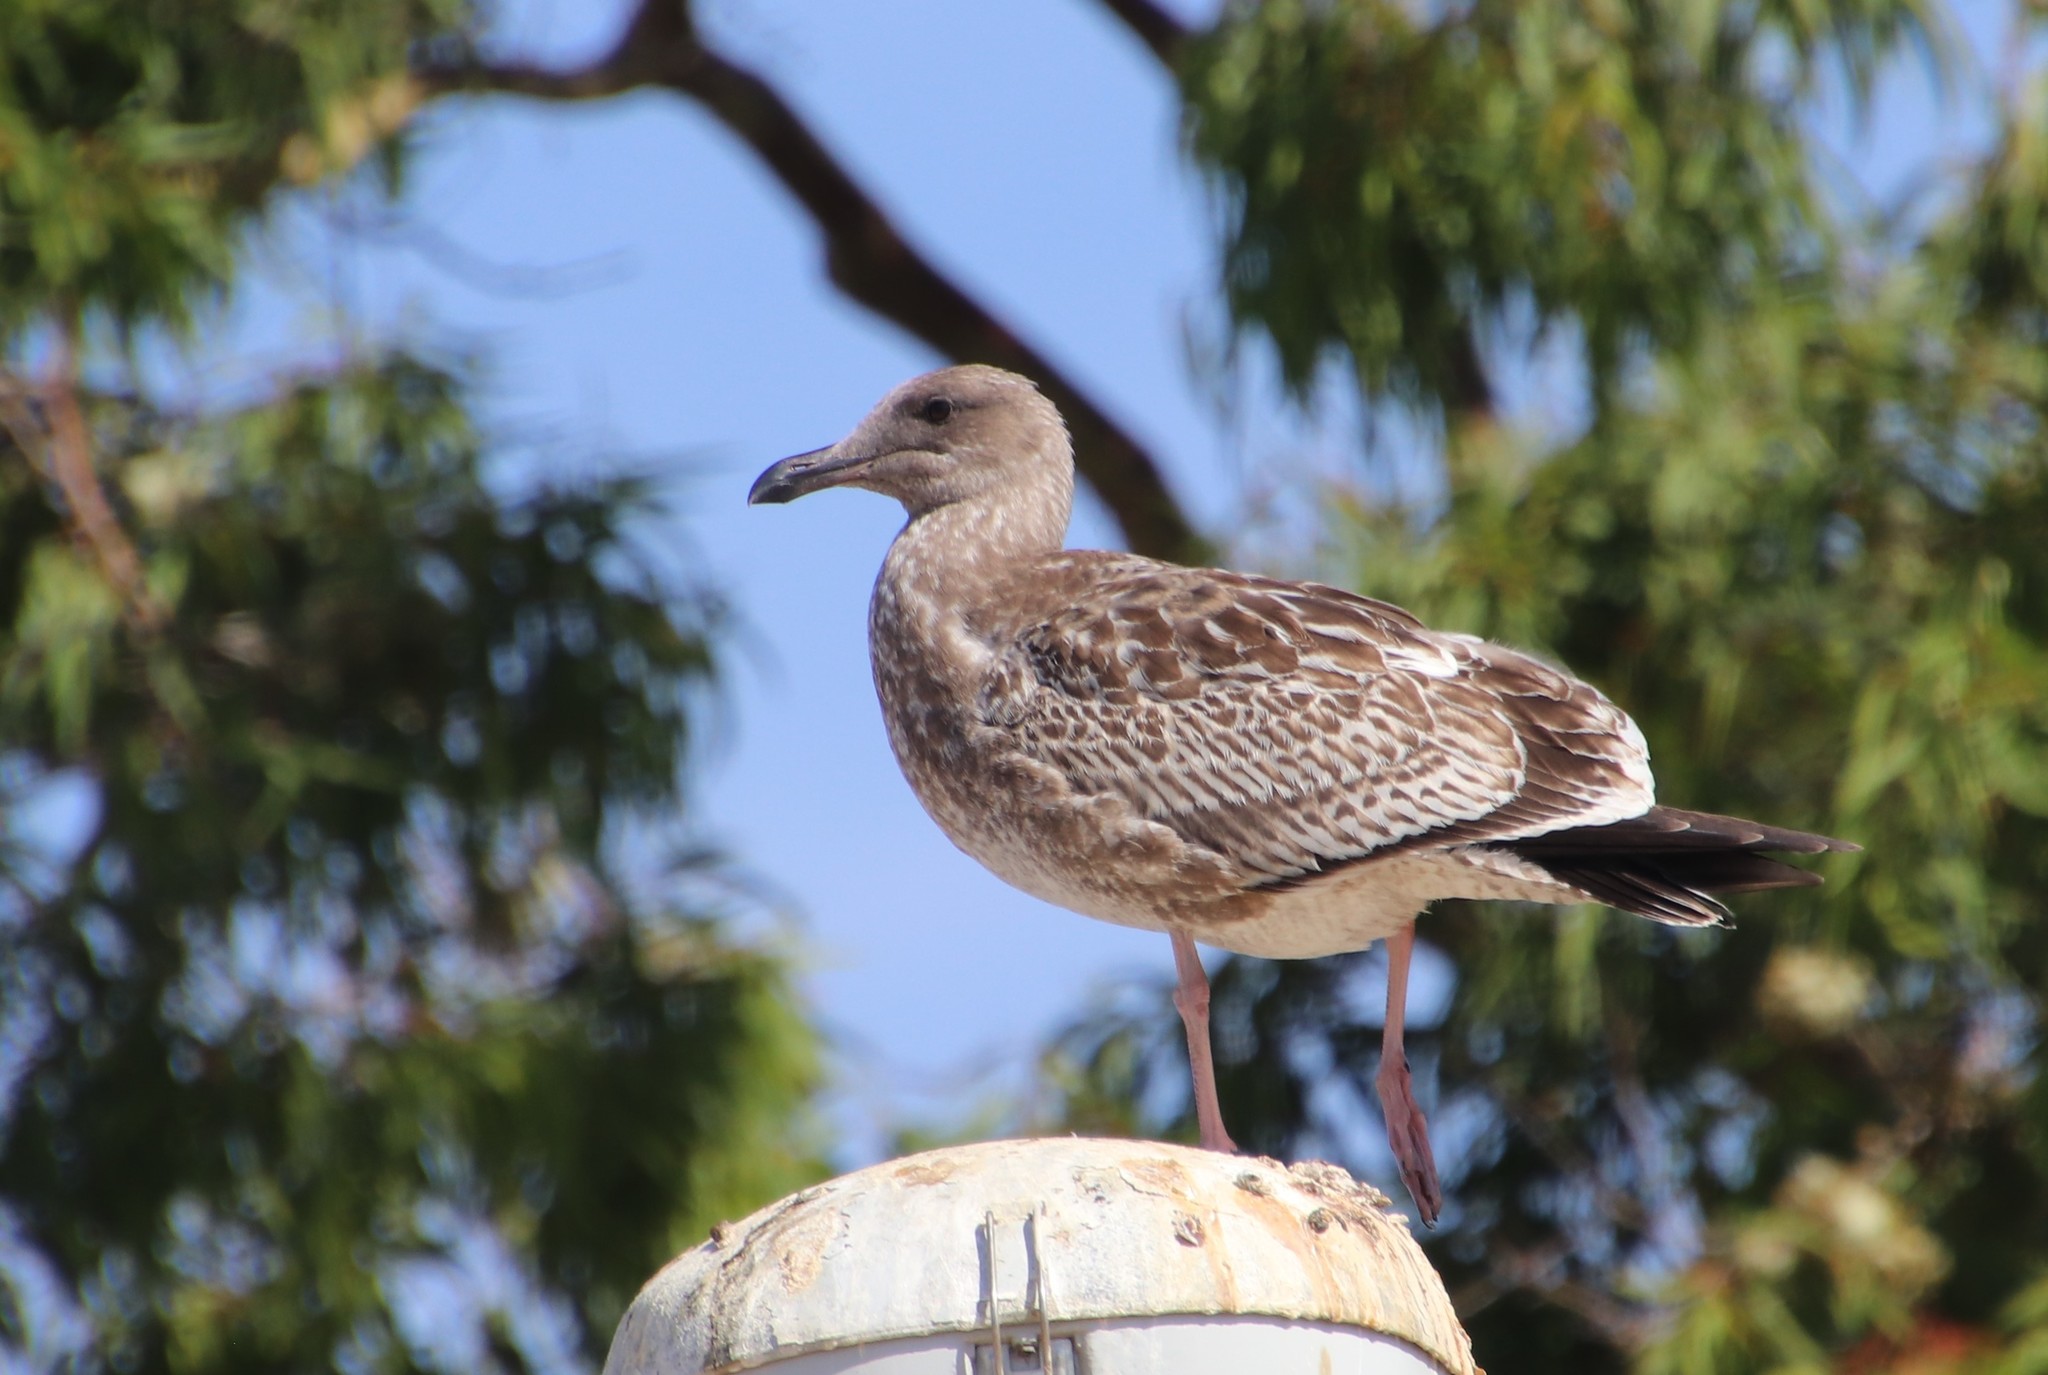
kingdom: Animalia
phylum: Chordata
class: Aves
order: Charadriiformes
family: Laridae
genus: Larus
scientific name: Larus occidentalis
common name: Western gull
